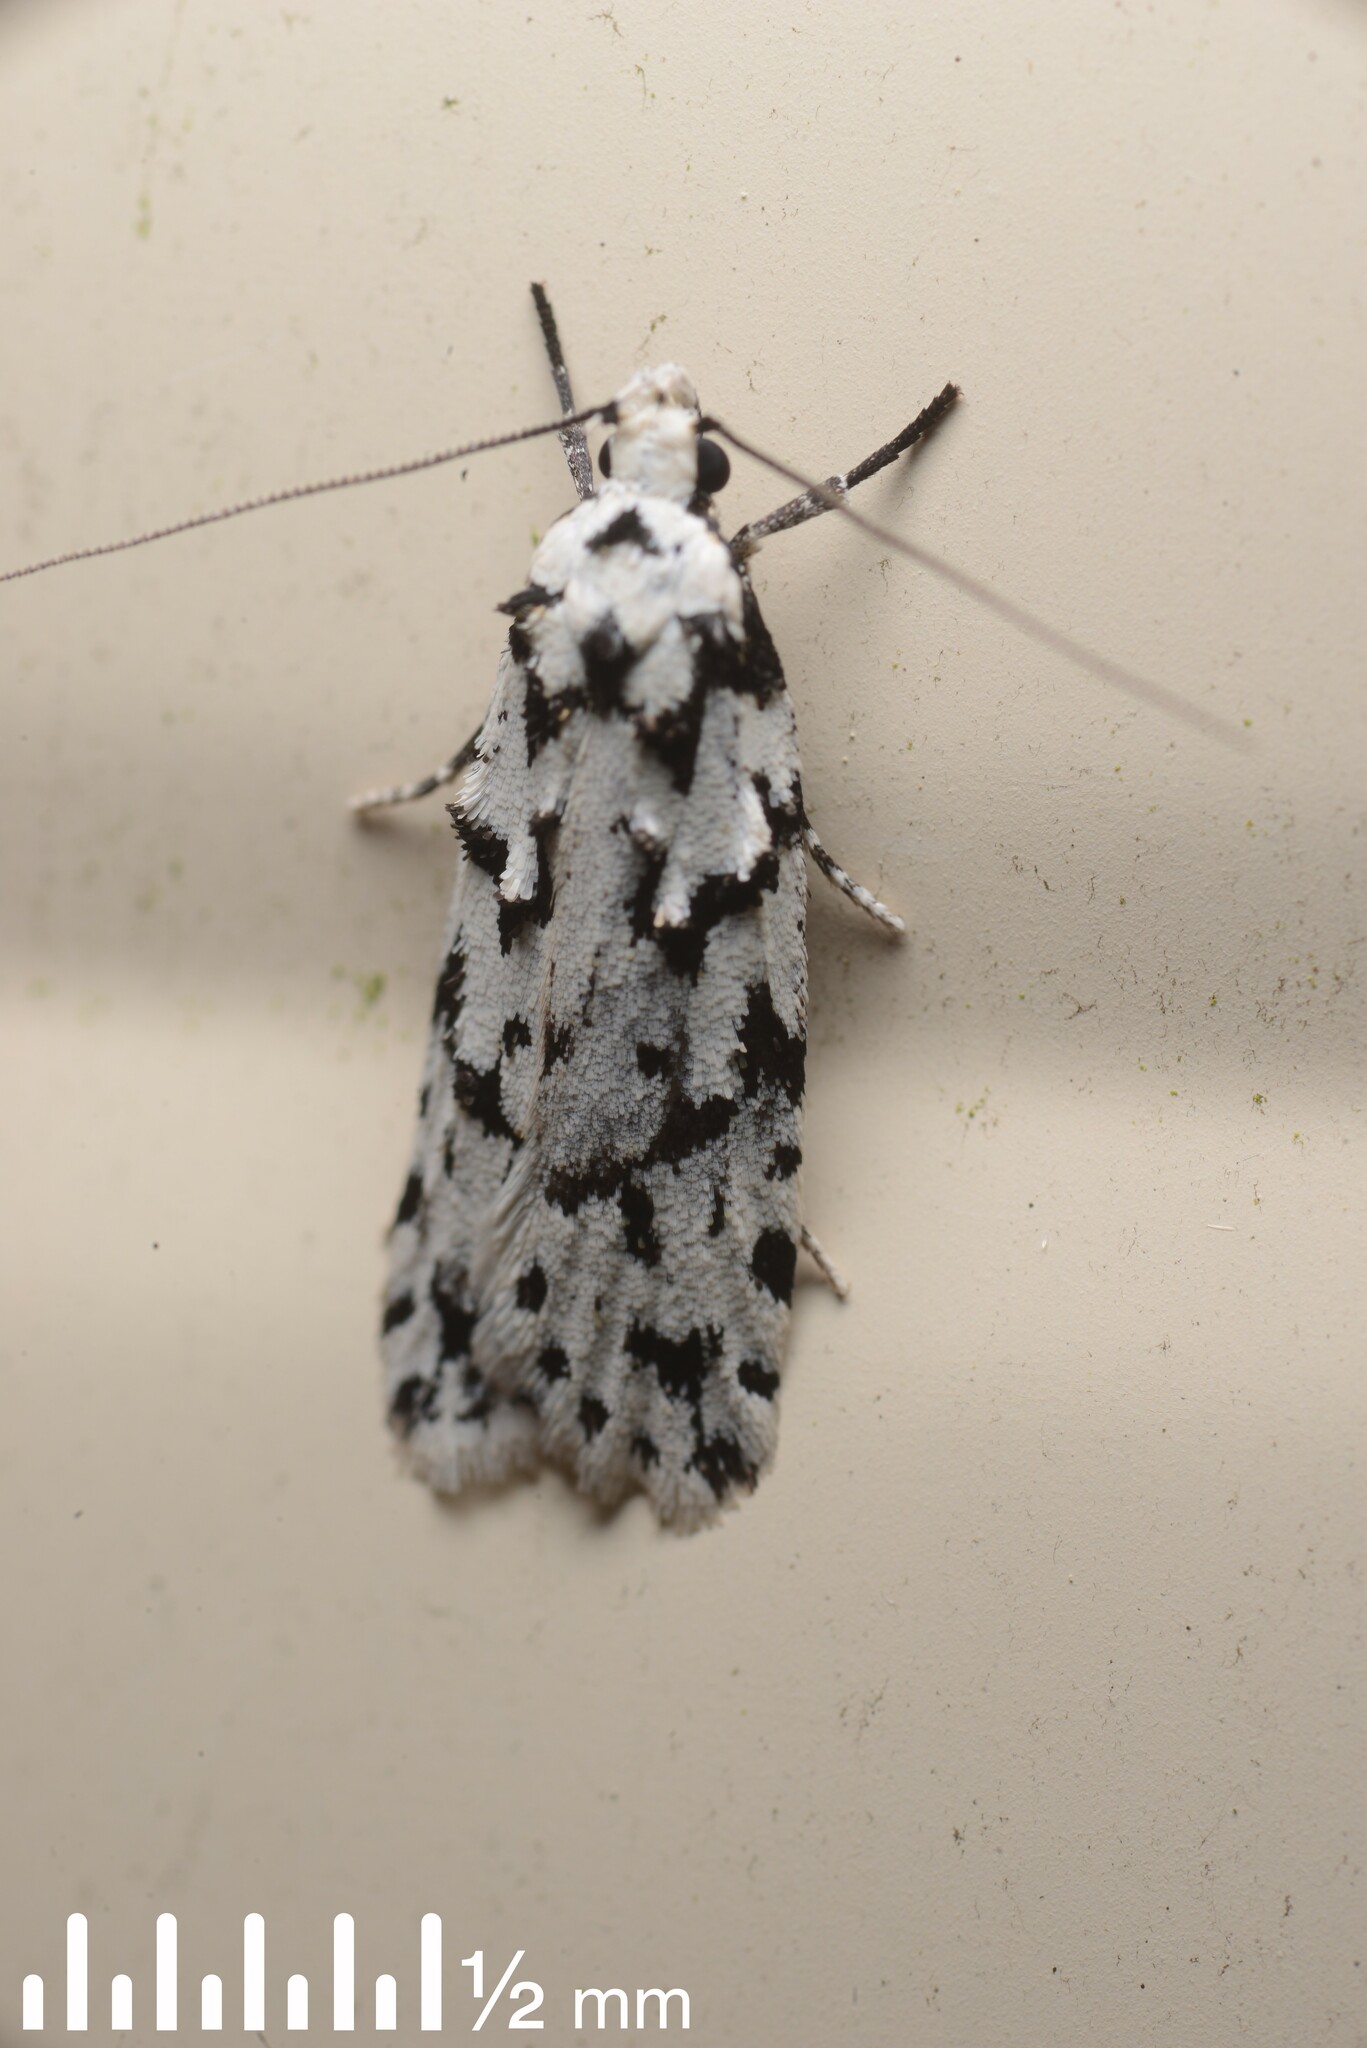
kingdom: Animalia
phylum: Arthropoda
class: Insecta
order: Lepidoptera
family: Oecophoridae
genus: Izatha
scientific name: Izatha katadiktya
